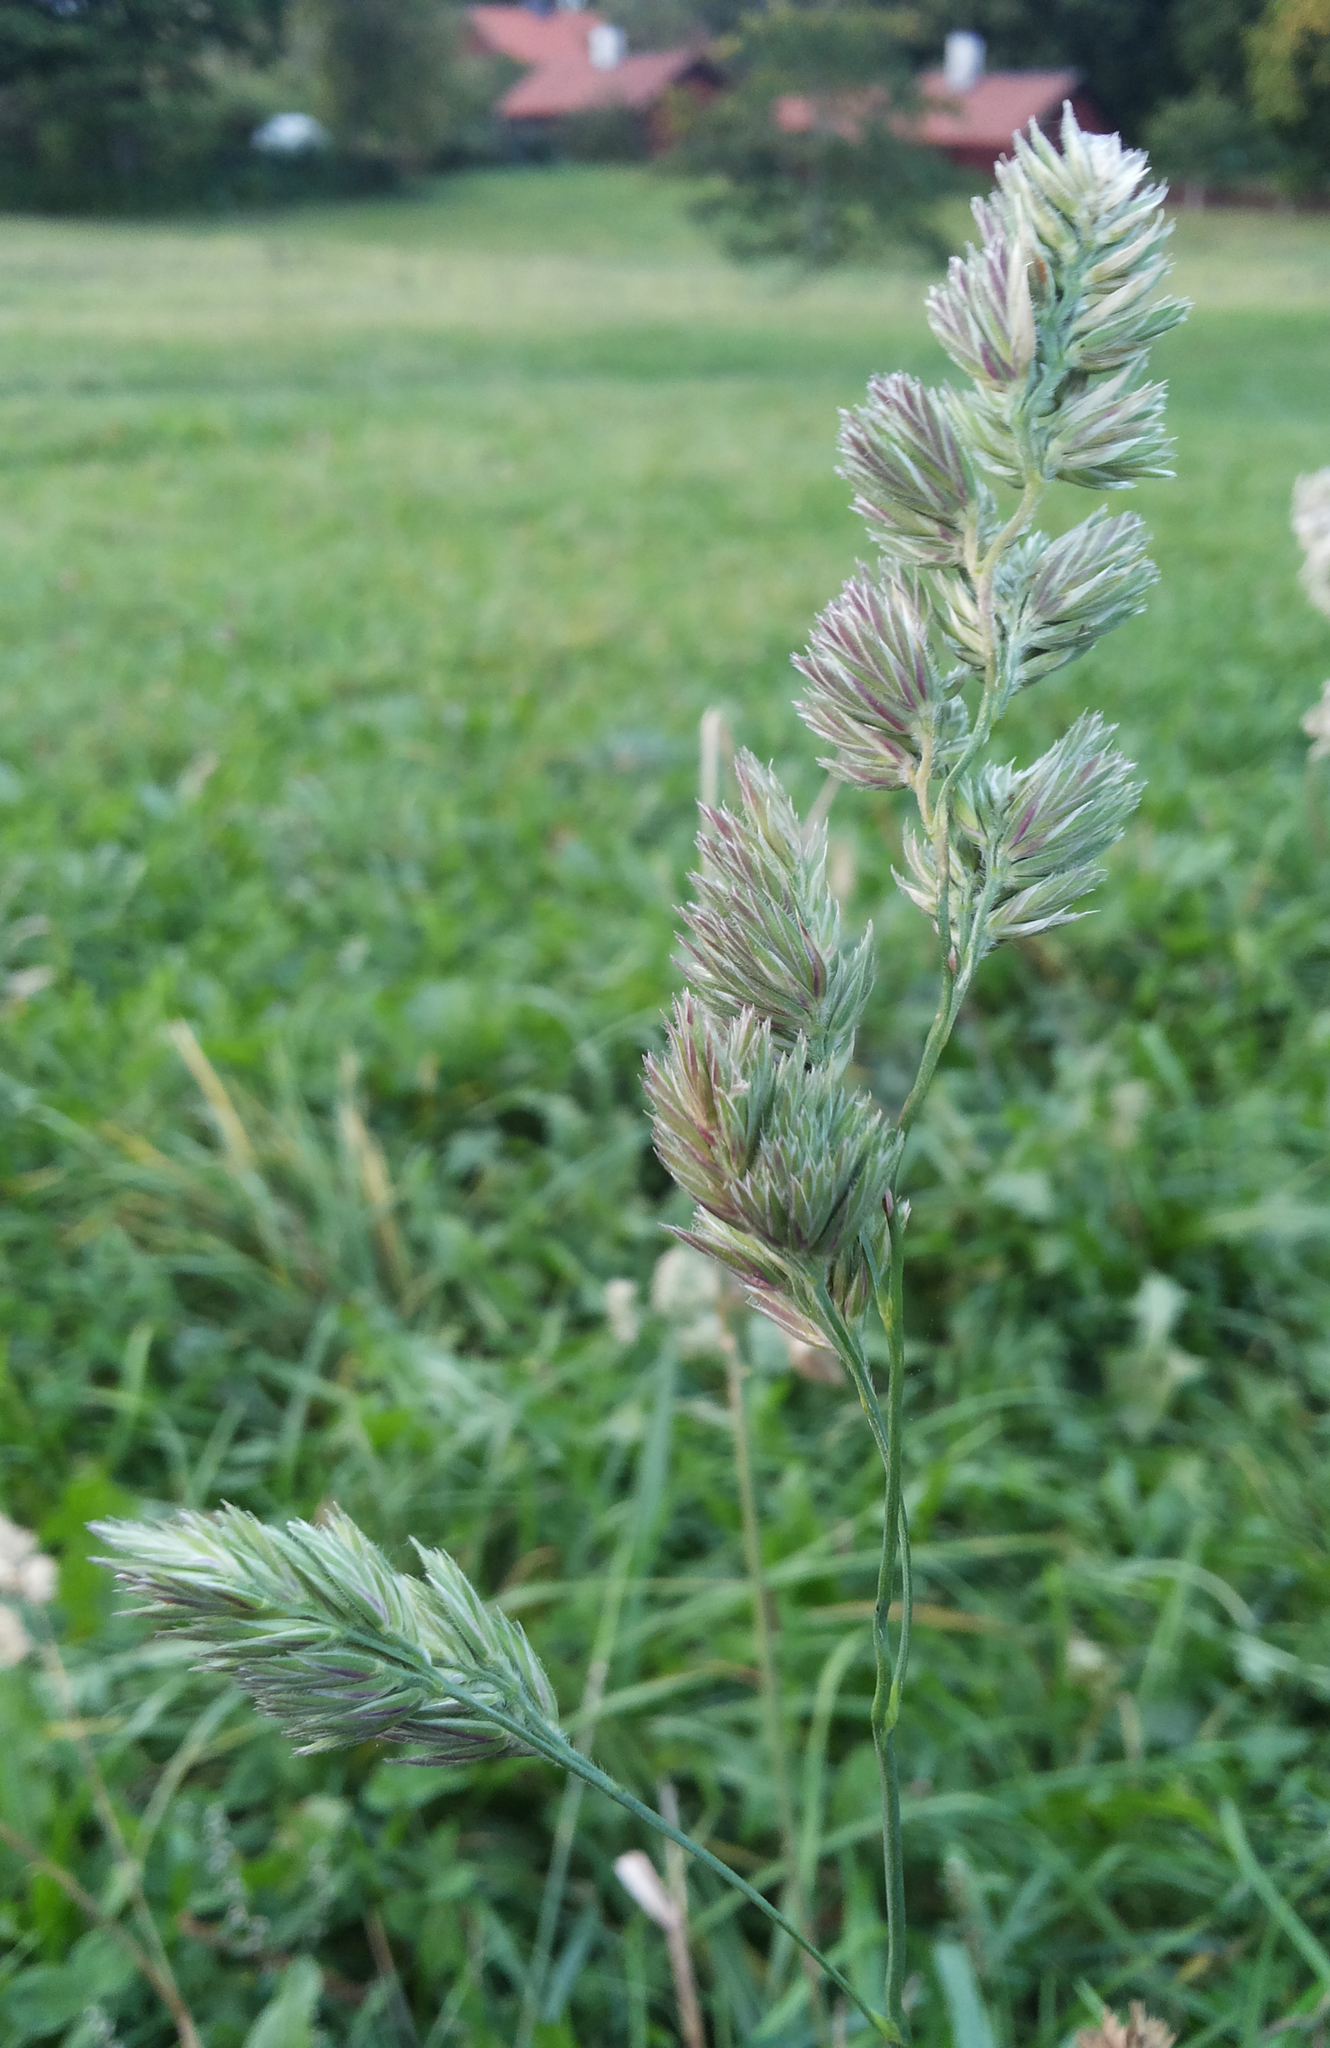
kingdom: Plantae
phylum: Tracheophyta
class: Liliopsida
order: Poales
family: Poaceae
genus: Dactylis
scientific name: Dactylis glomerata
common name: Orchardgrass
